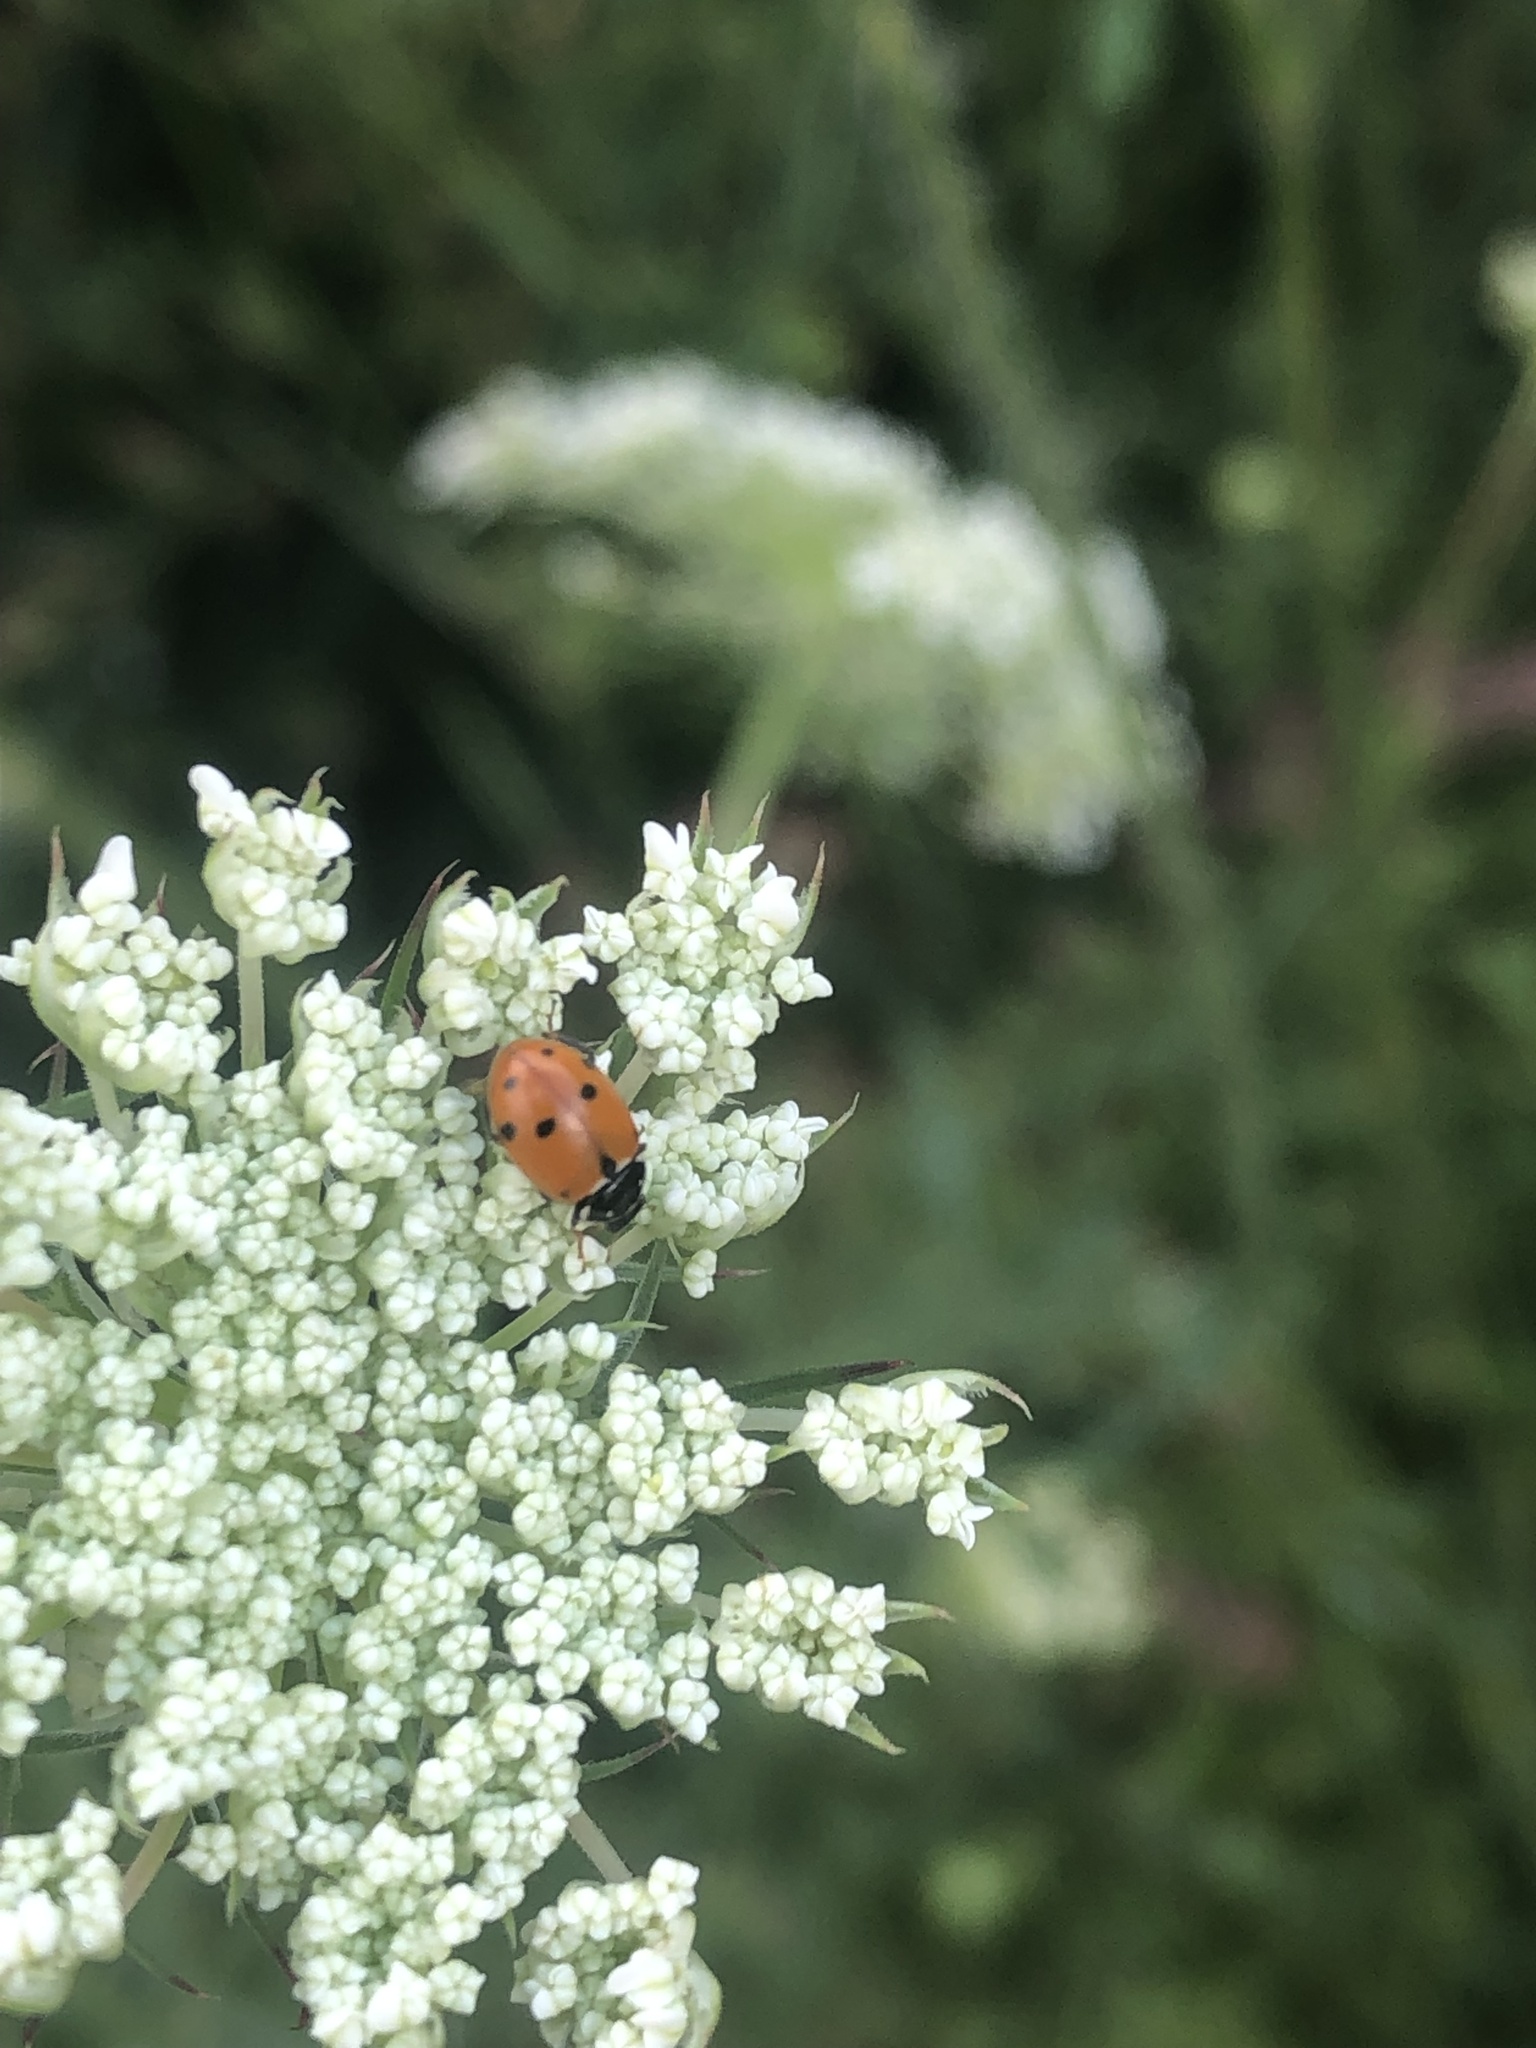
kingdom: Animalia
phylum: Arthropoda
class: Insecta
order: Coleoptera
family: Coccinellidae
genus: Hippodamia
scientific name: Hippodamia variegata
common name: Ladybird beetle
